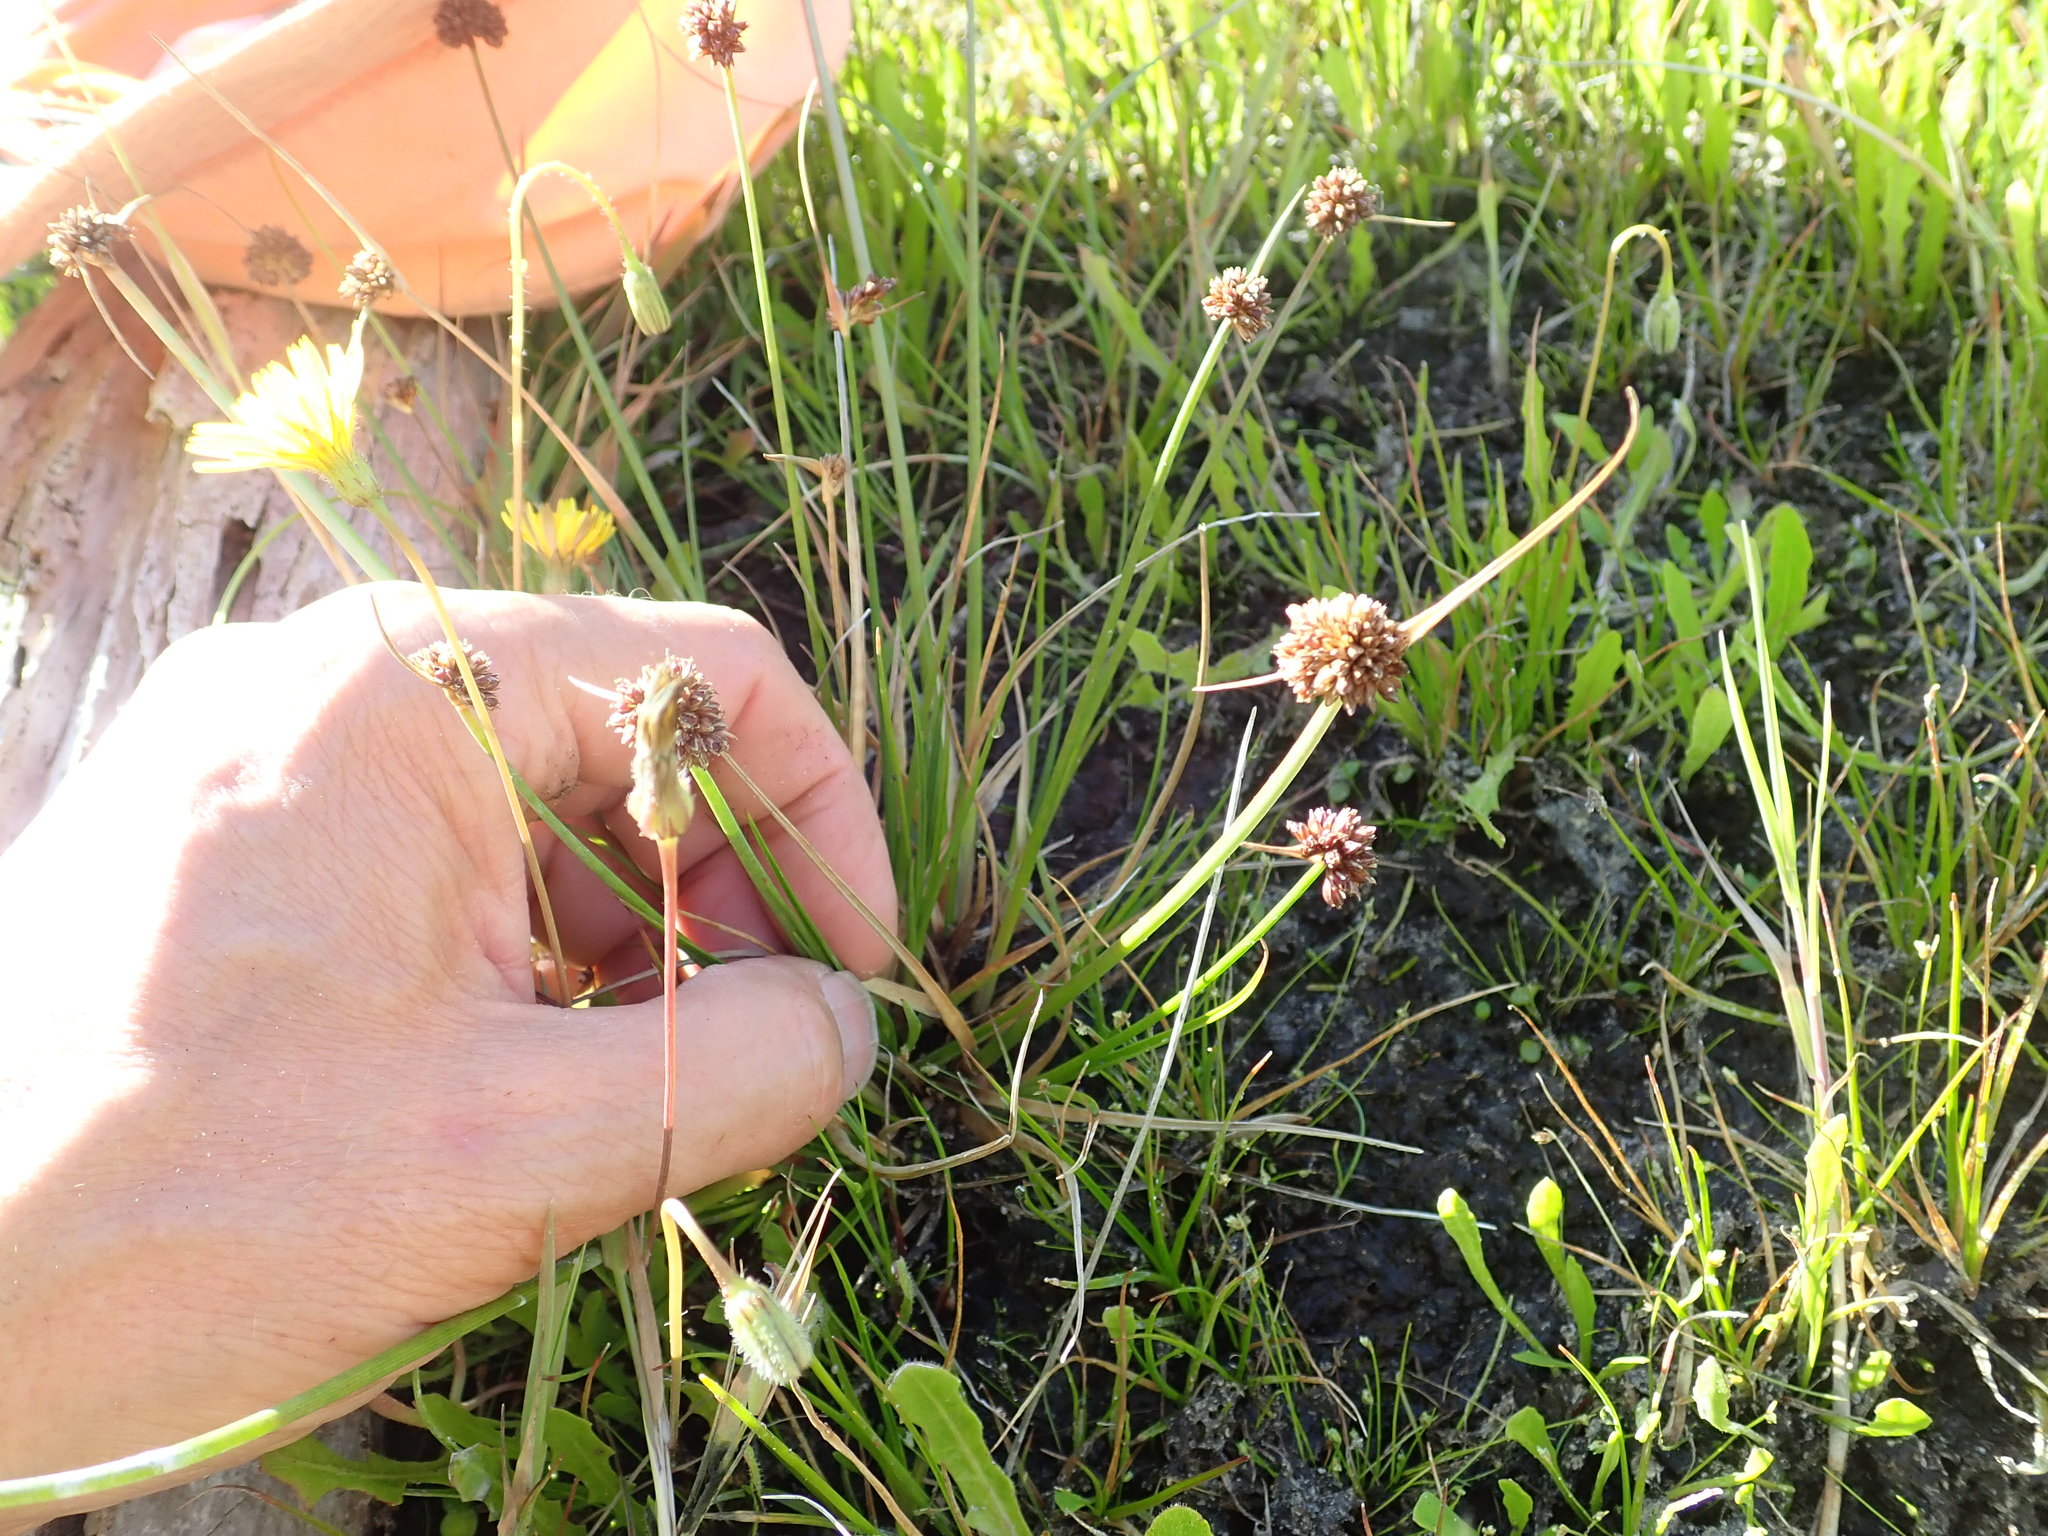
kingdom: Plantae
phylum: Tracheophyta
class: Liliopsida
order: Poales
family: Juncaceae
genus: Juncus
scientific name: Juncus caespiticius
